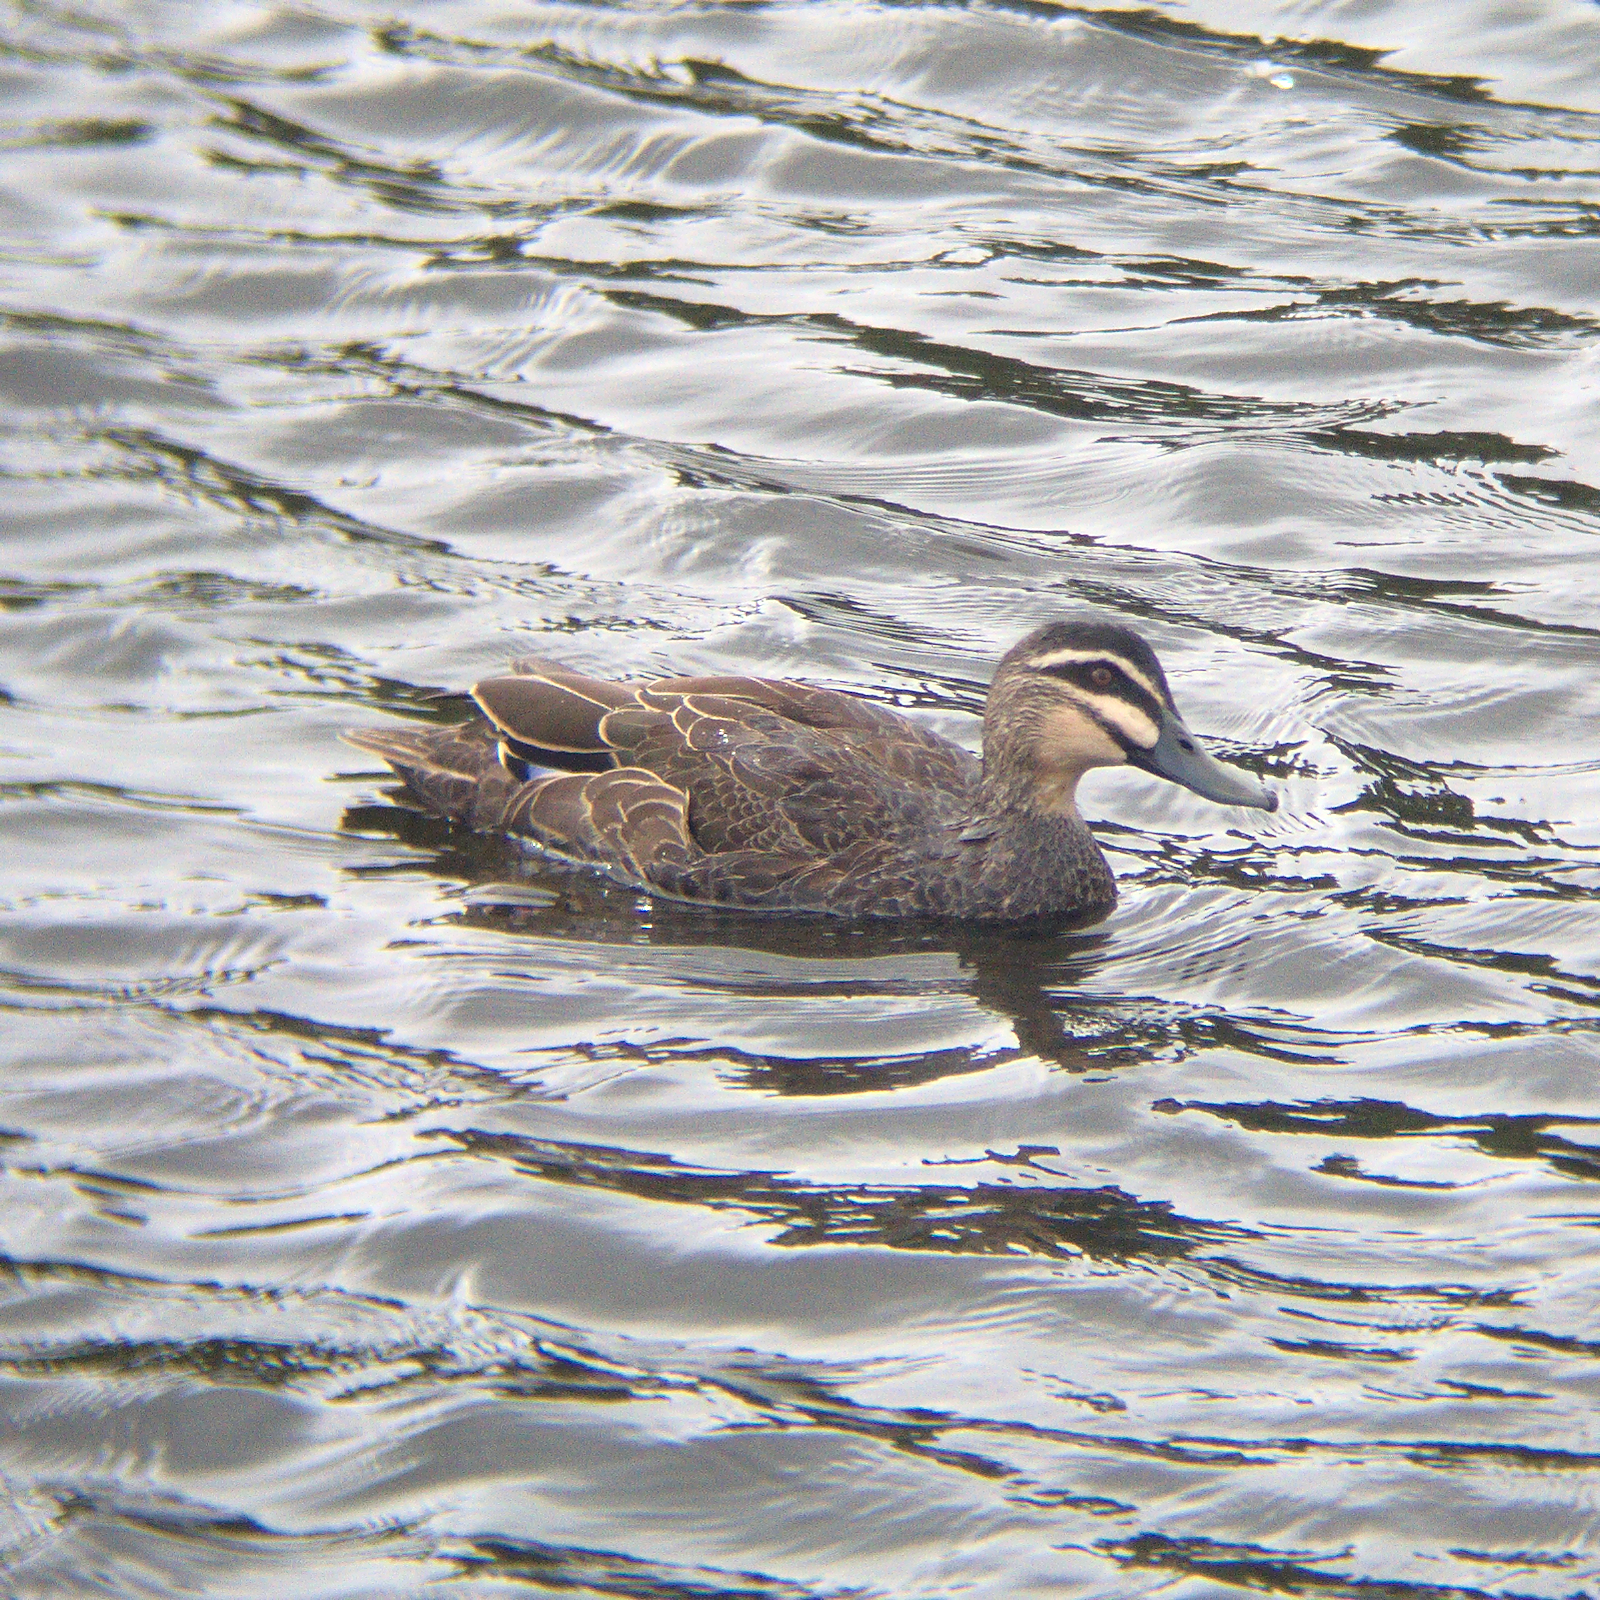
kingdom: Animalia
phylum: Chordata
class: Aves
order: Anseriformes
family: Anatidae
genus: Anas
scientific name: Anas superciliosa
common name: Pacific black duck
